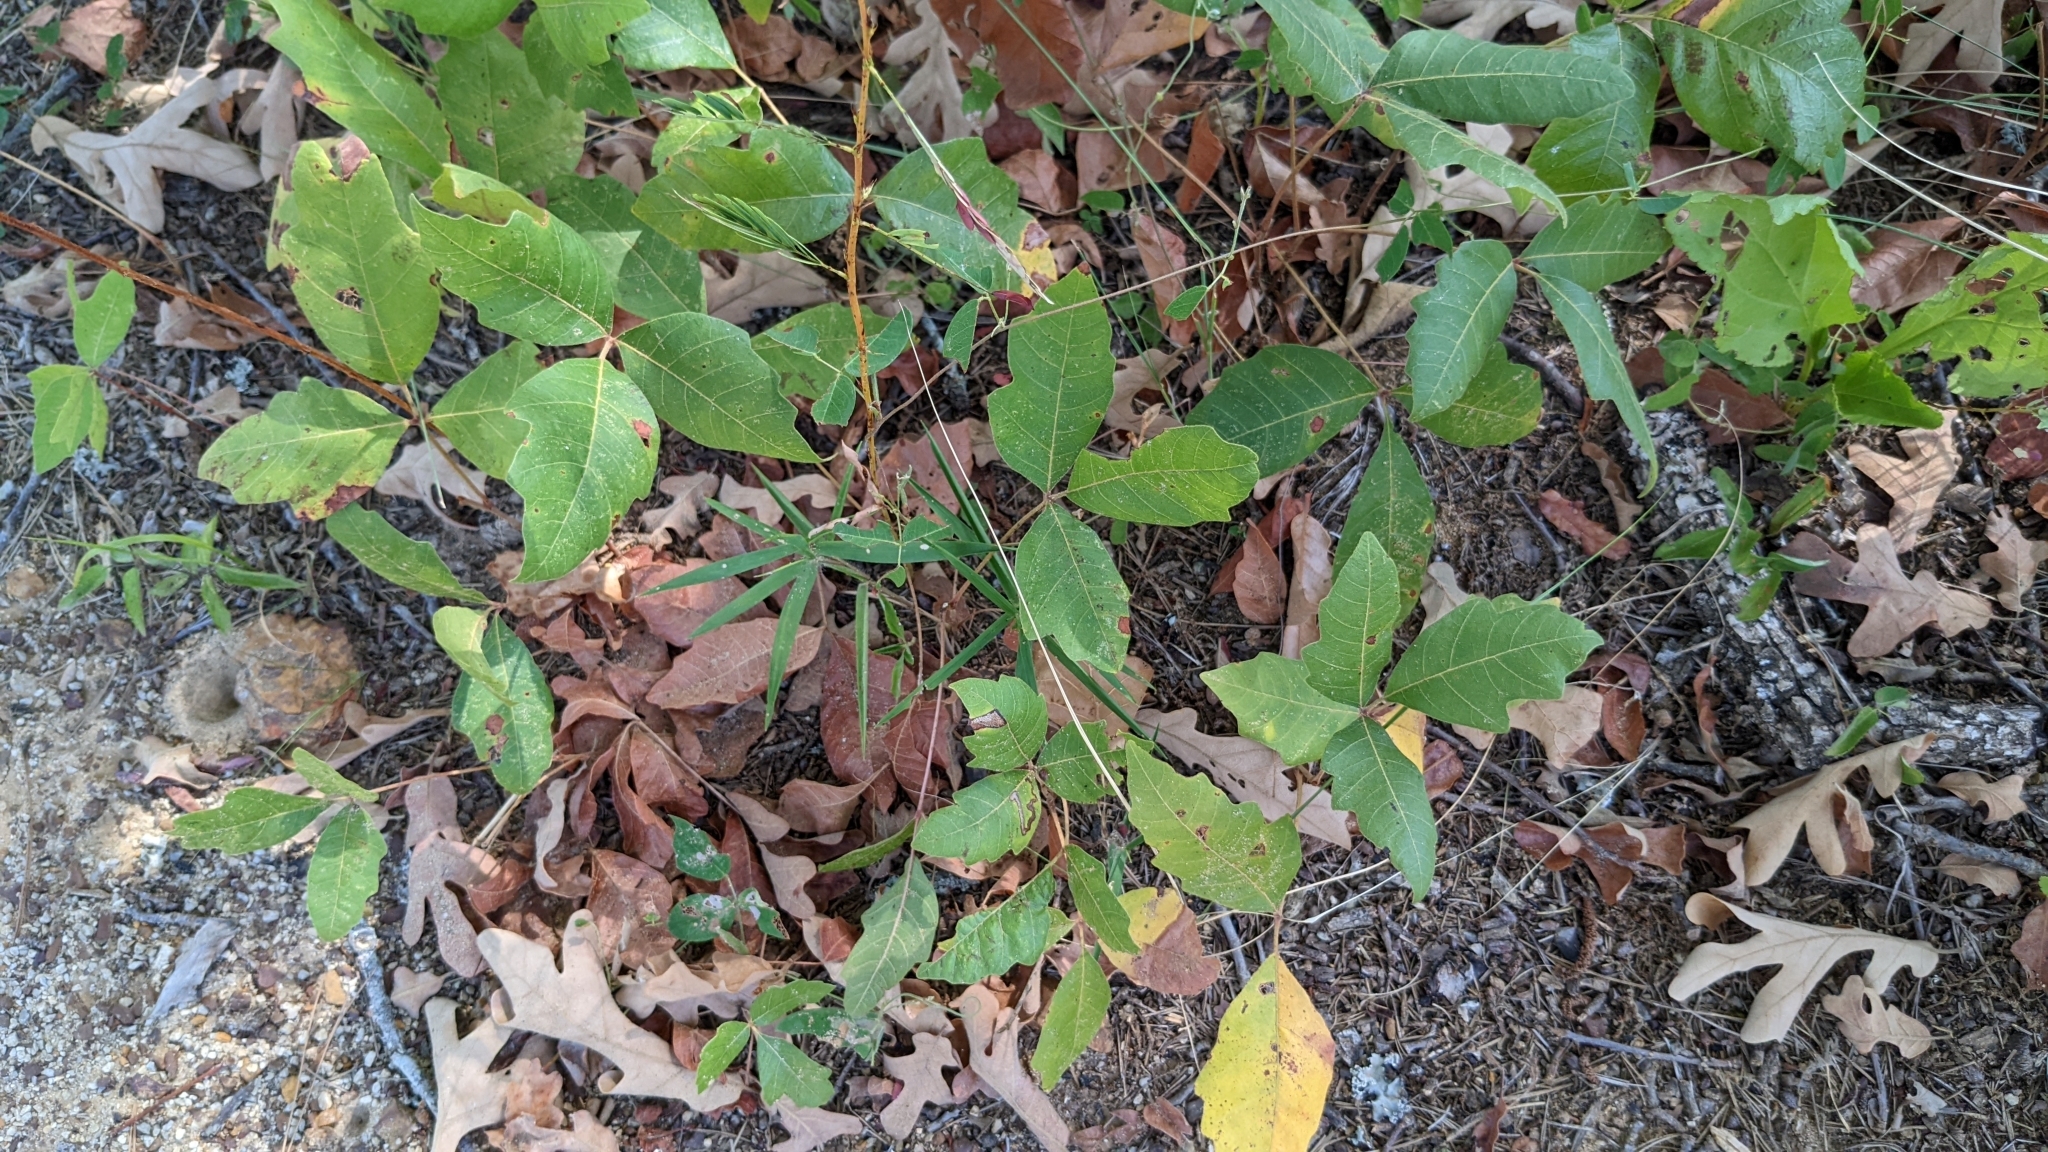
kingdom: Plantae
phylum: Tracheophyta
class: Magnoliopsida
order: Sapindales
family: Anacardiaceae
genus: Toxicodendron
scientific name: Toxicodendron radicans
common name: Poison ivy
